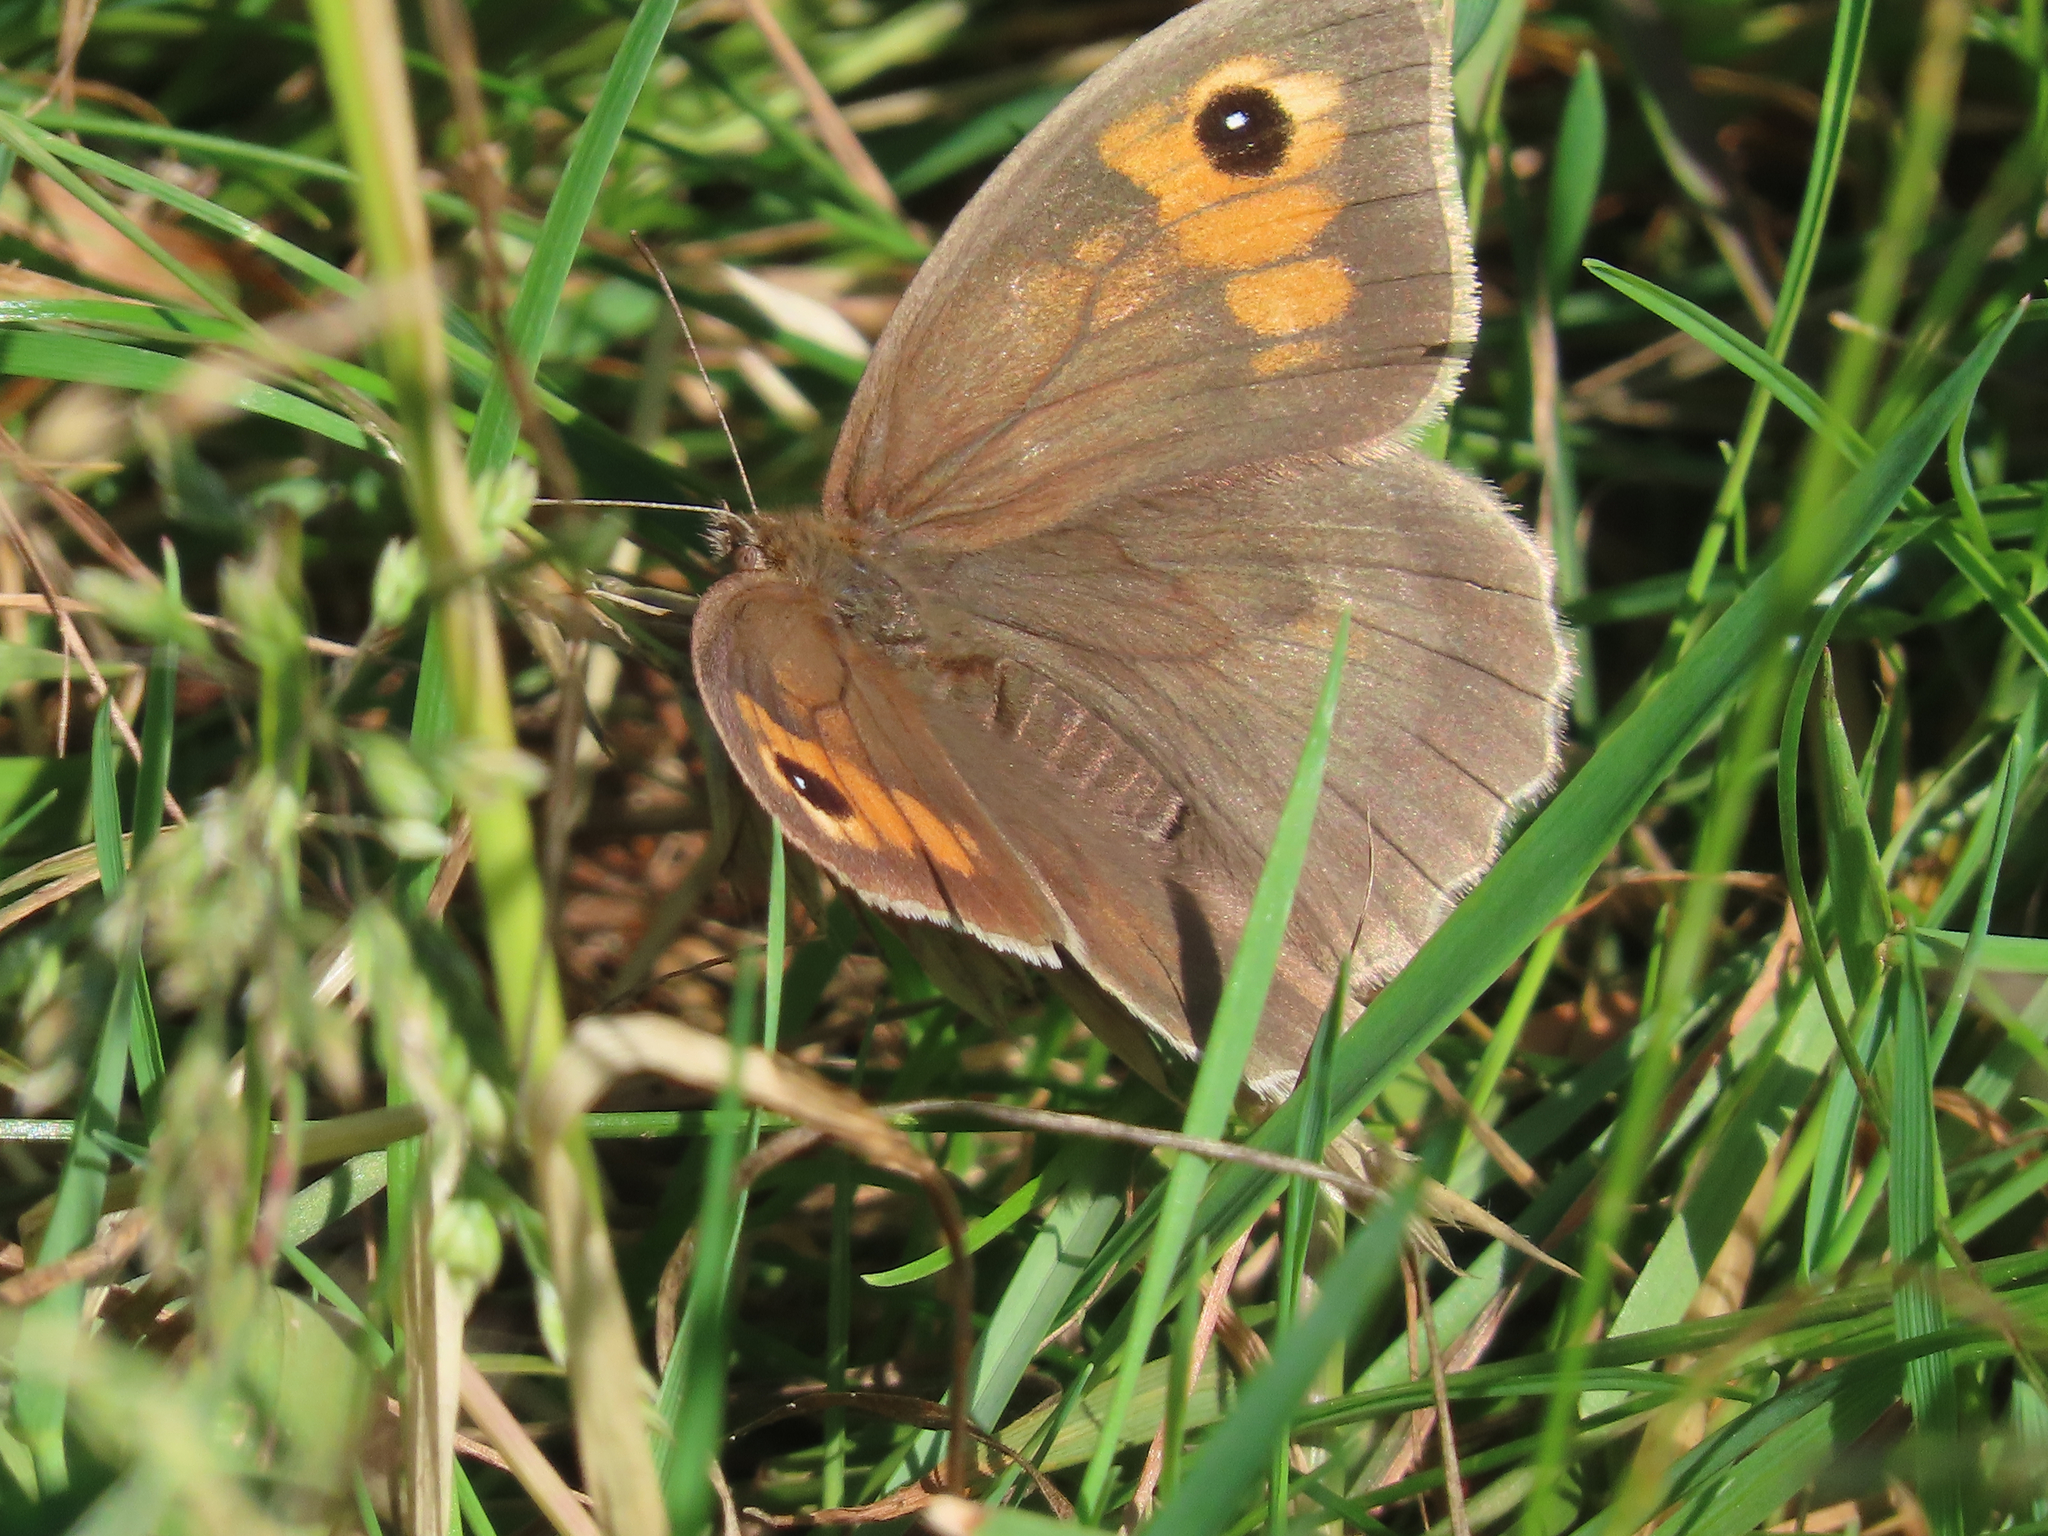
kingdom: Animalia
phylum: Arthropoda
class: Insecta
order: Lepidoptera
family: Nymphalidae
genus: Maniola
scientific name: Maniola jurtina
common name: Meadow brown
